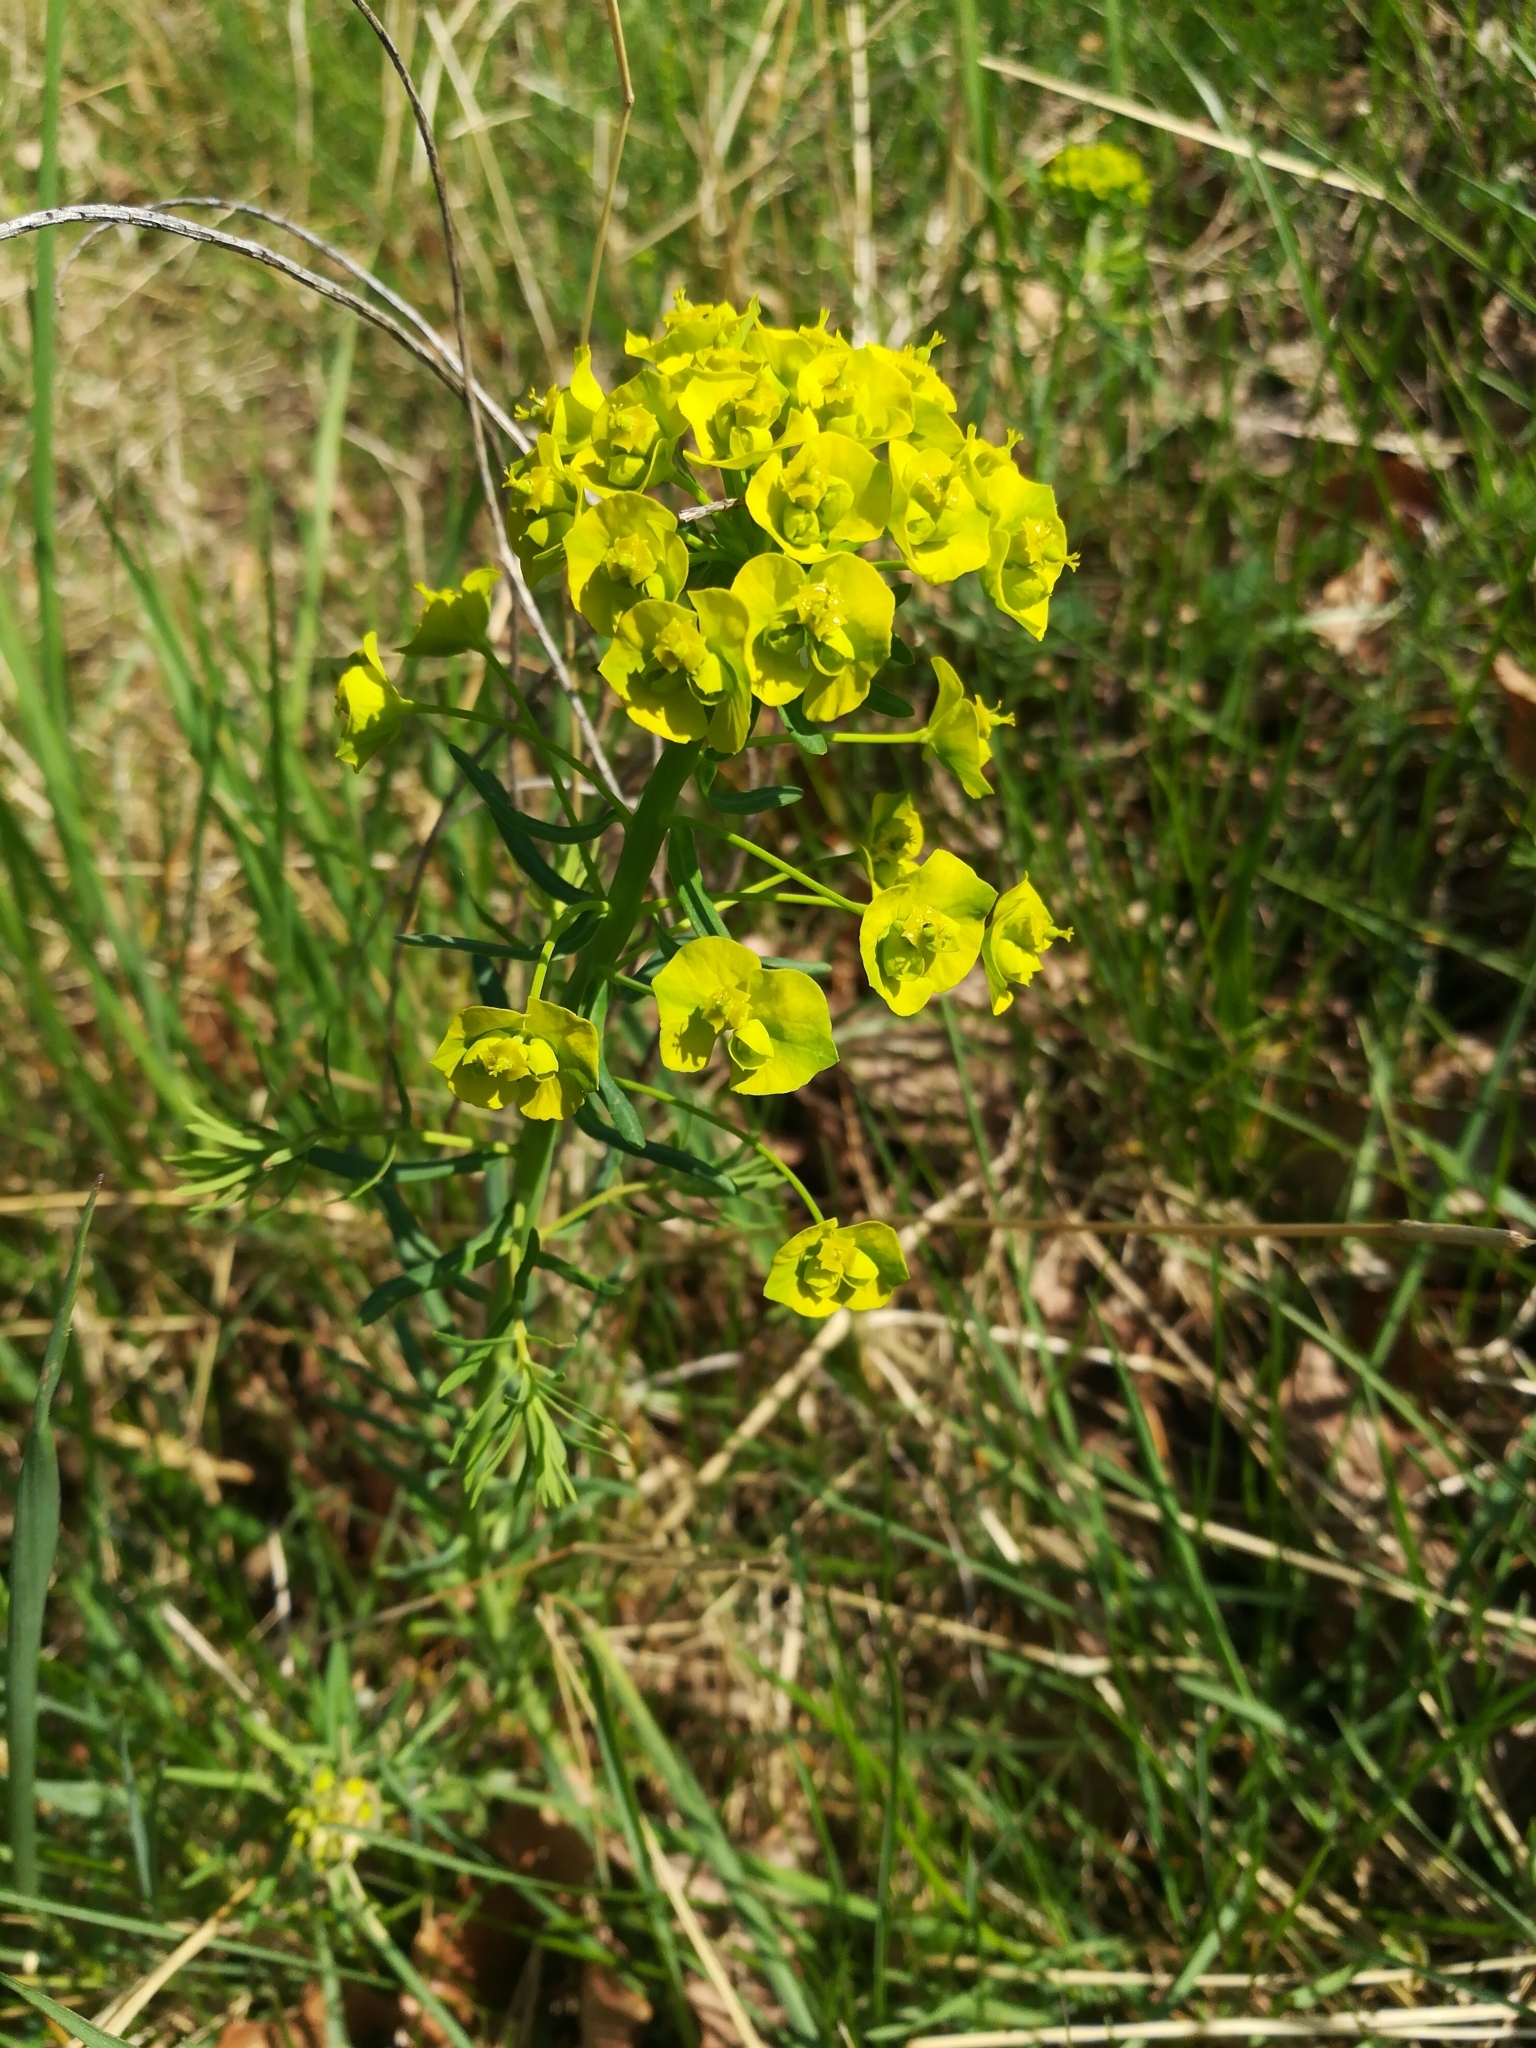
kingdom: Plantae
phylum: Tracheophyta
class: Magnoliopsida
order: Malpighiales
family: Euphorbiaceae
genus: Euphorbia
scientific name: Euphorbia cyparissias
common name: Cypress spurge
